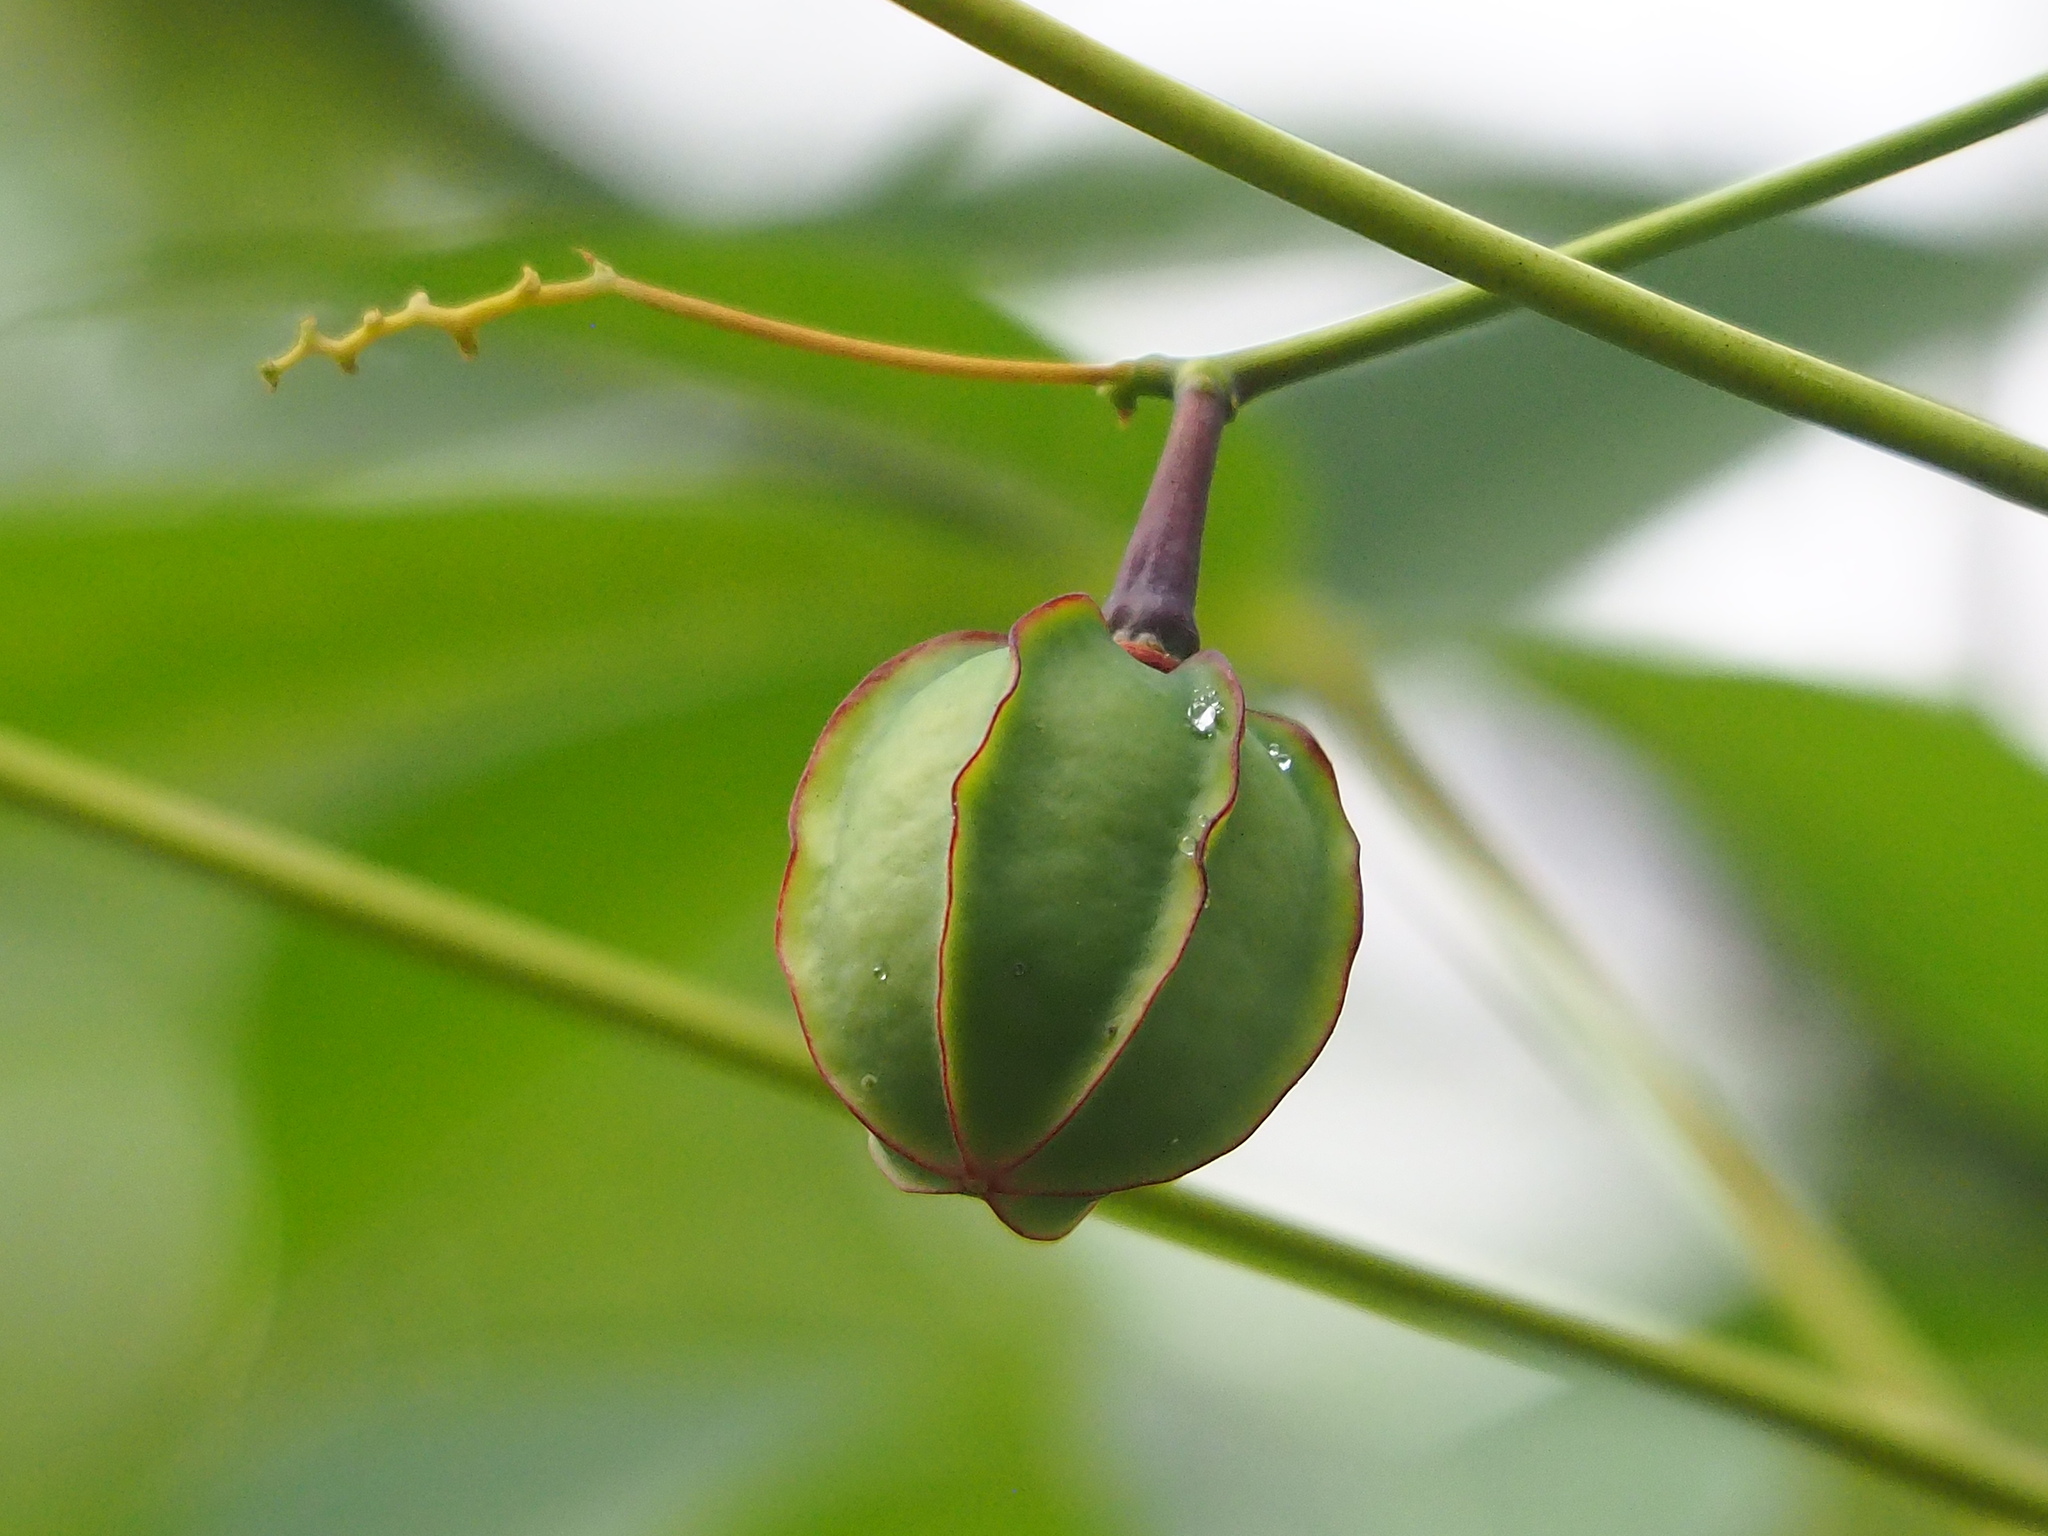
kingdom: Plantae
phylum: Tracheophyta
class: Magnoliopsida
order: Malpighiales
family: Euphorbiaceae
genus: Manihot
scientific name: Manihot esculenta
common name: Cassava
